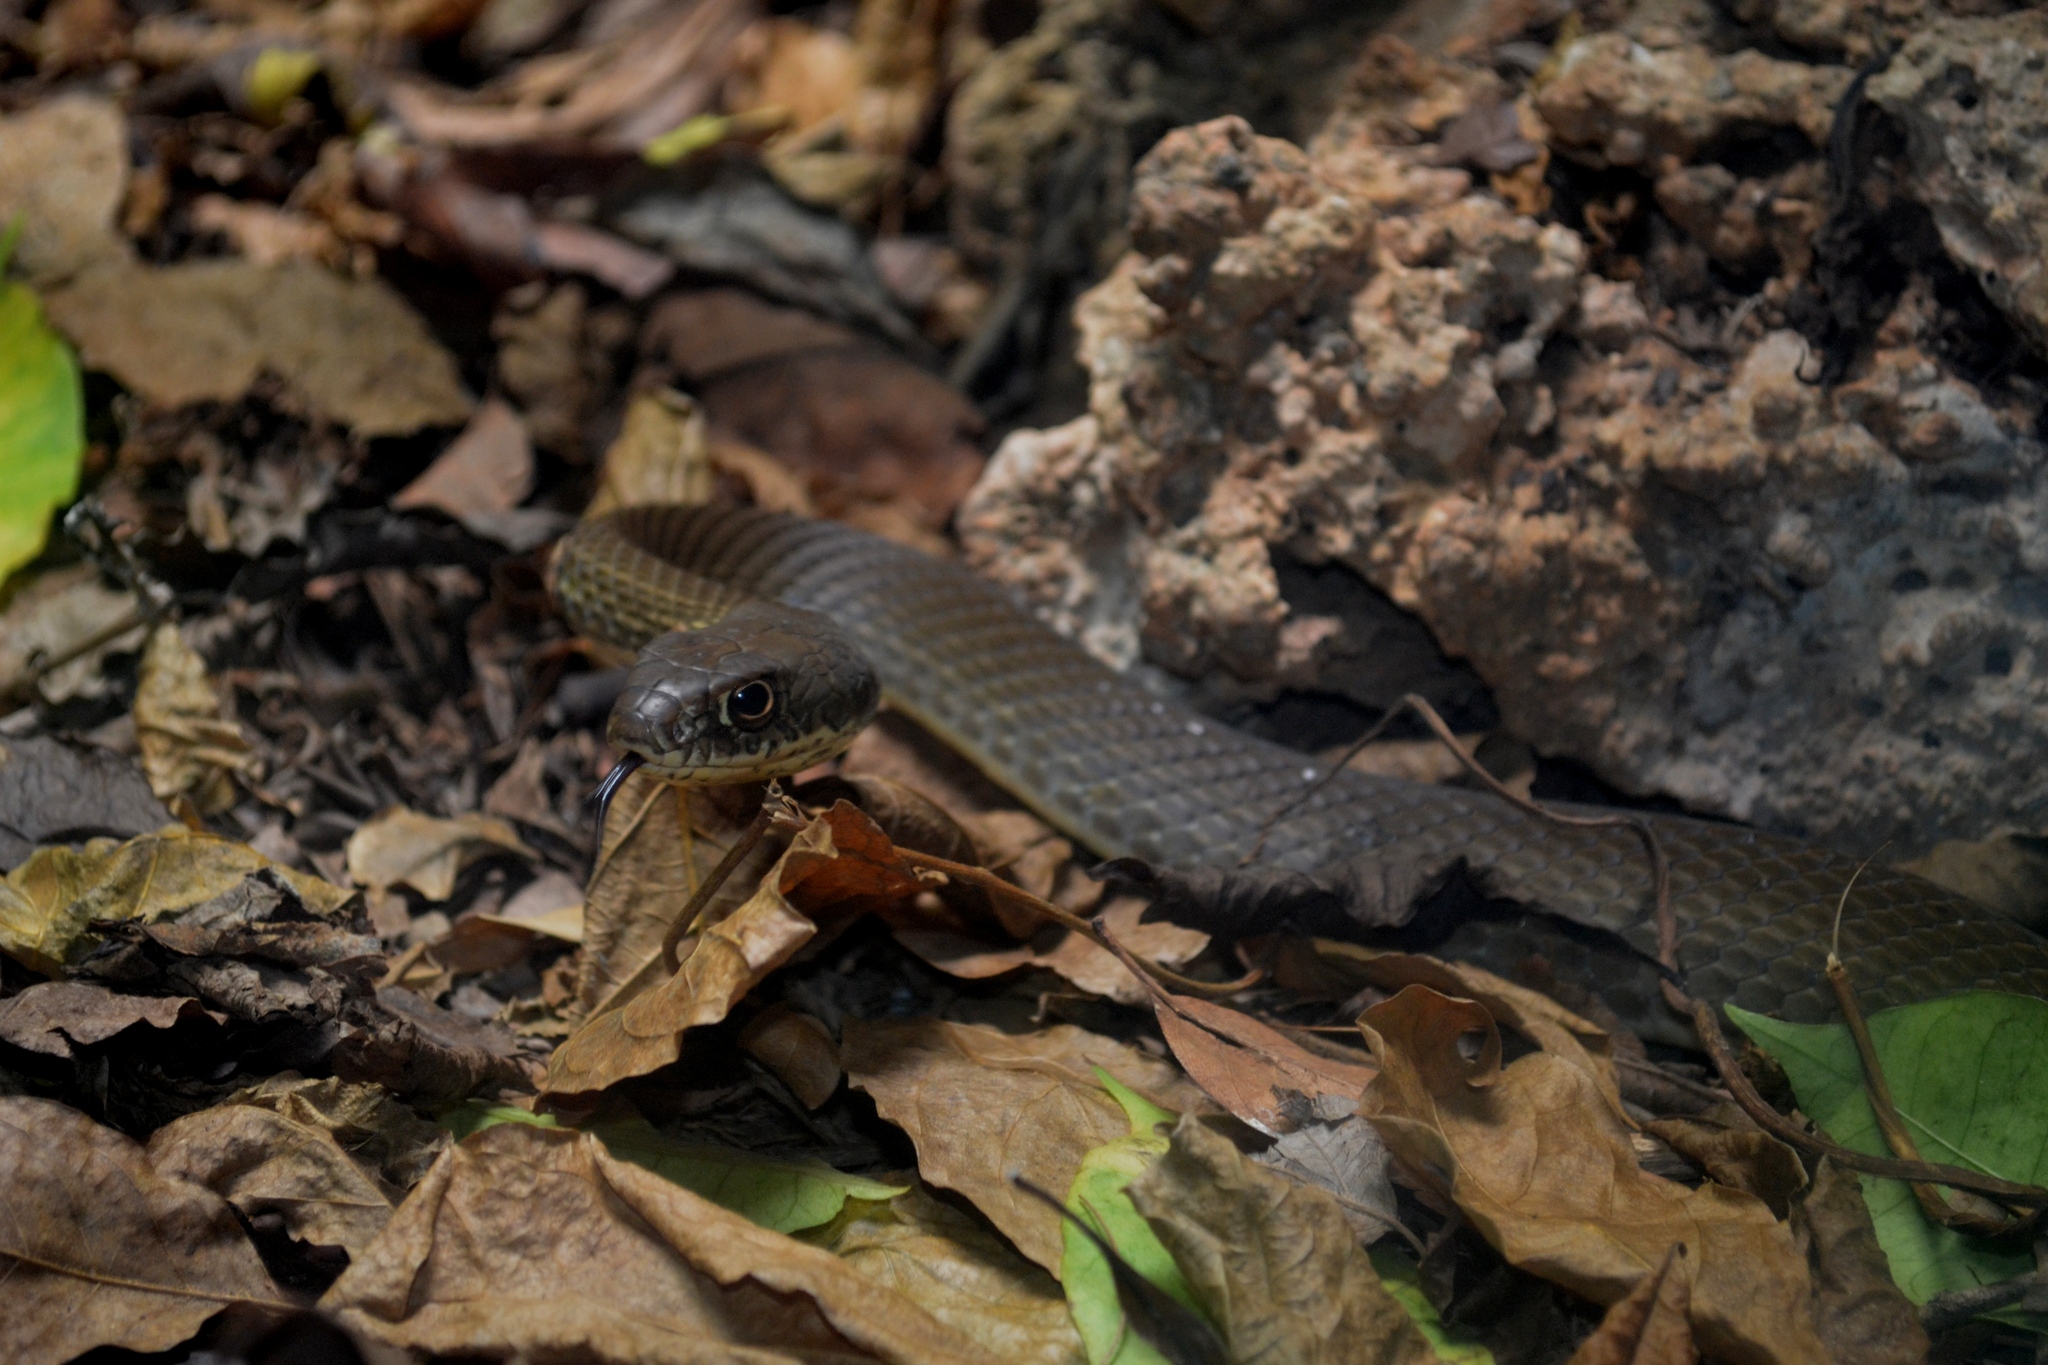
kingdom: Animalia
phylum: Chordata
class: Squamata
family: Colubridae
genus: Masticophis
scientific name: Masticophis mentovarius
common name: Neotropical whip snake
